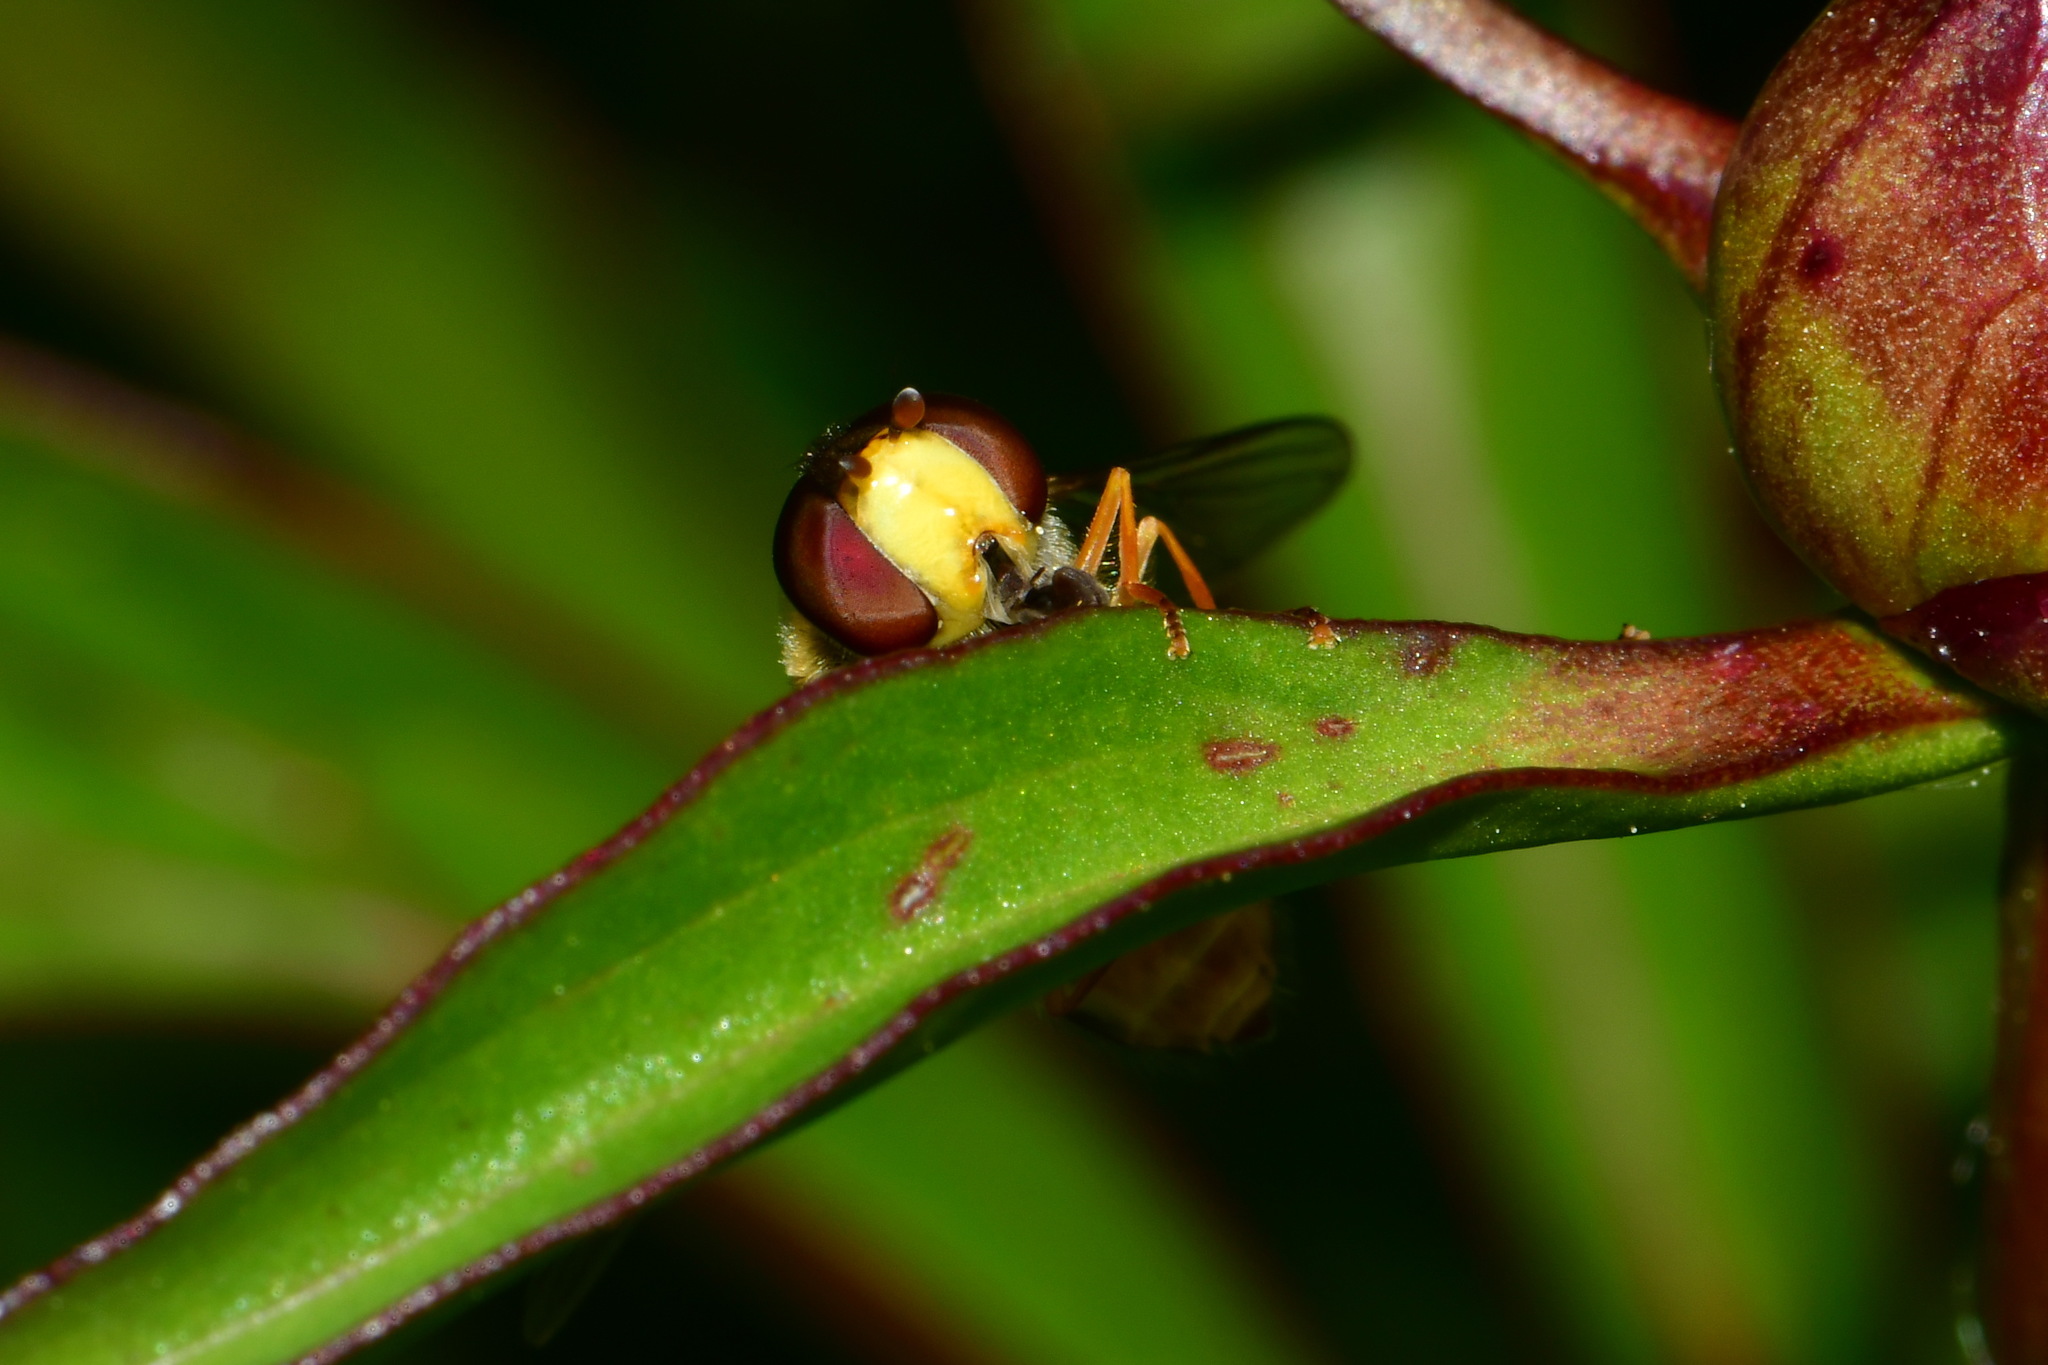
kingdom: Animalia
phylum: Arthropoda
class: Insecta
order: Diptera
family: Syrphidae
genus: Syrphus
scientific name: Syrphus vitripennis
